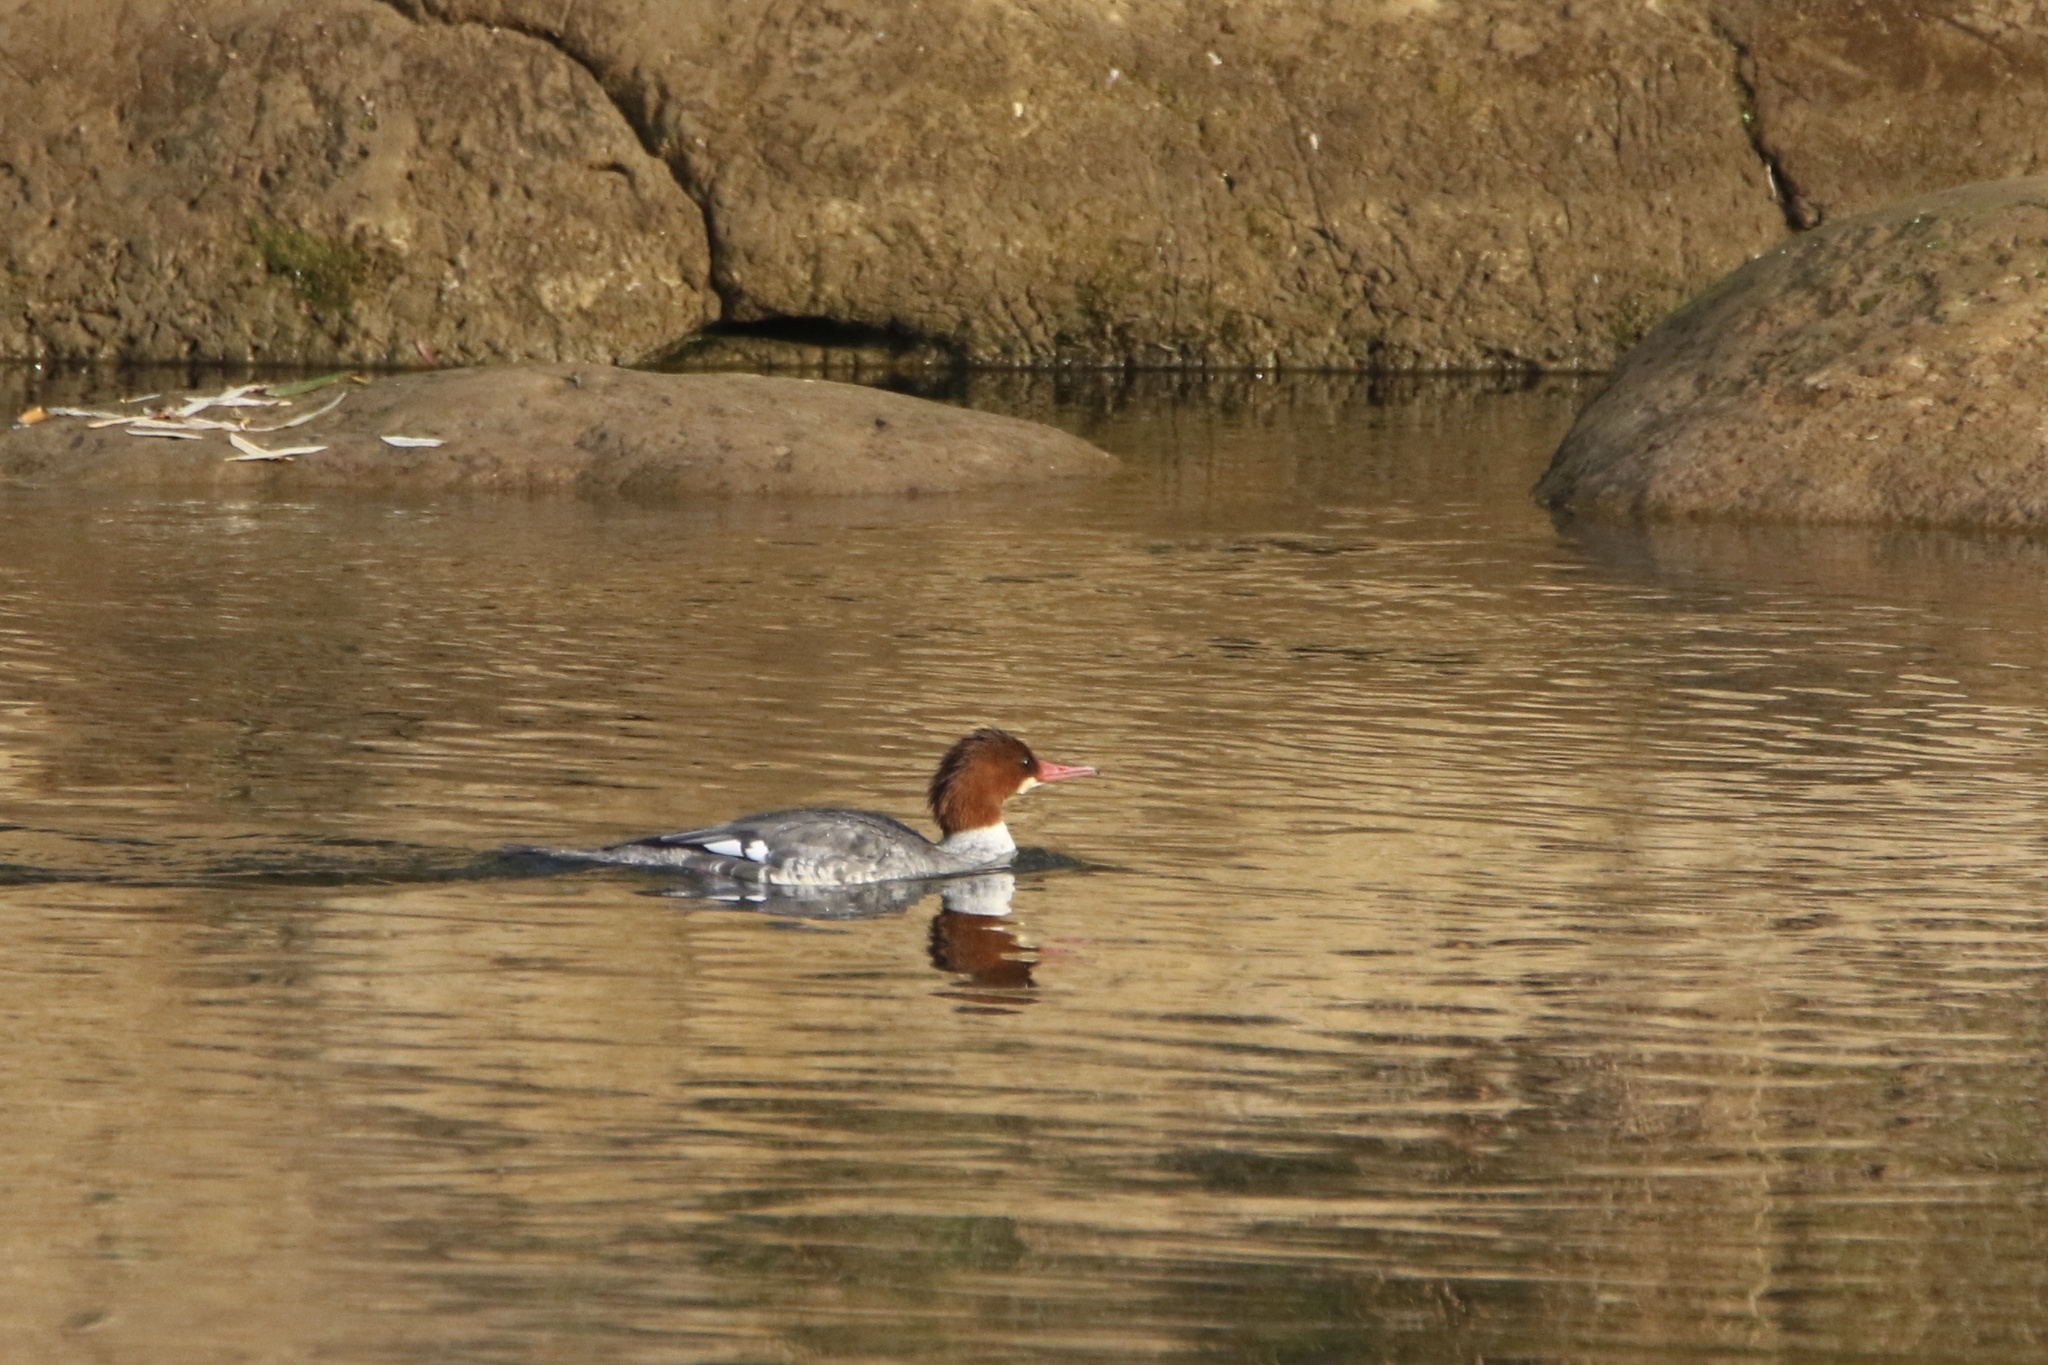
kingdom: Animalia
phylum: Chordata
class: Aves
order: Anseriformes
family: Anatidae
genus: Mergus
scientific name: Mergus merganser
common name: Common merganser
